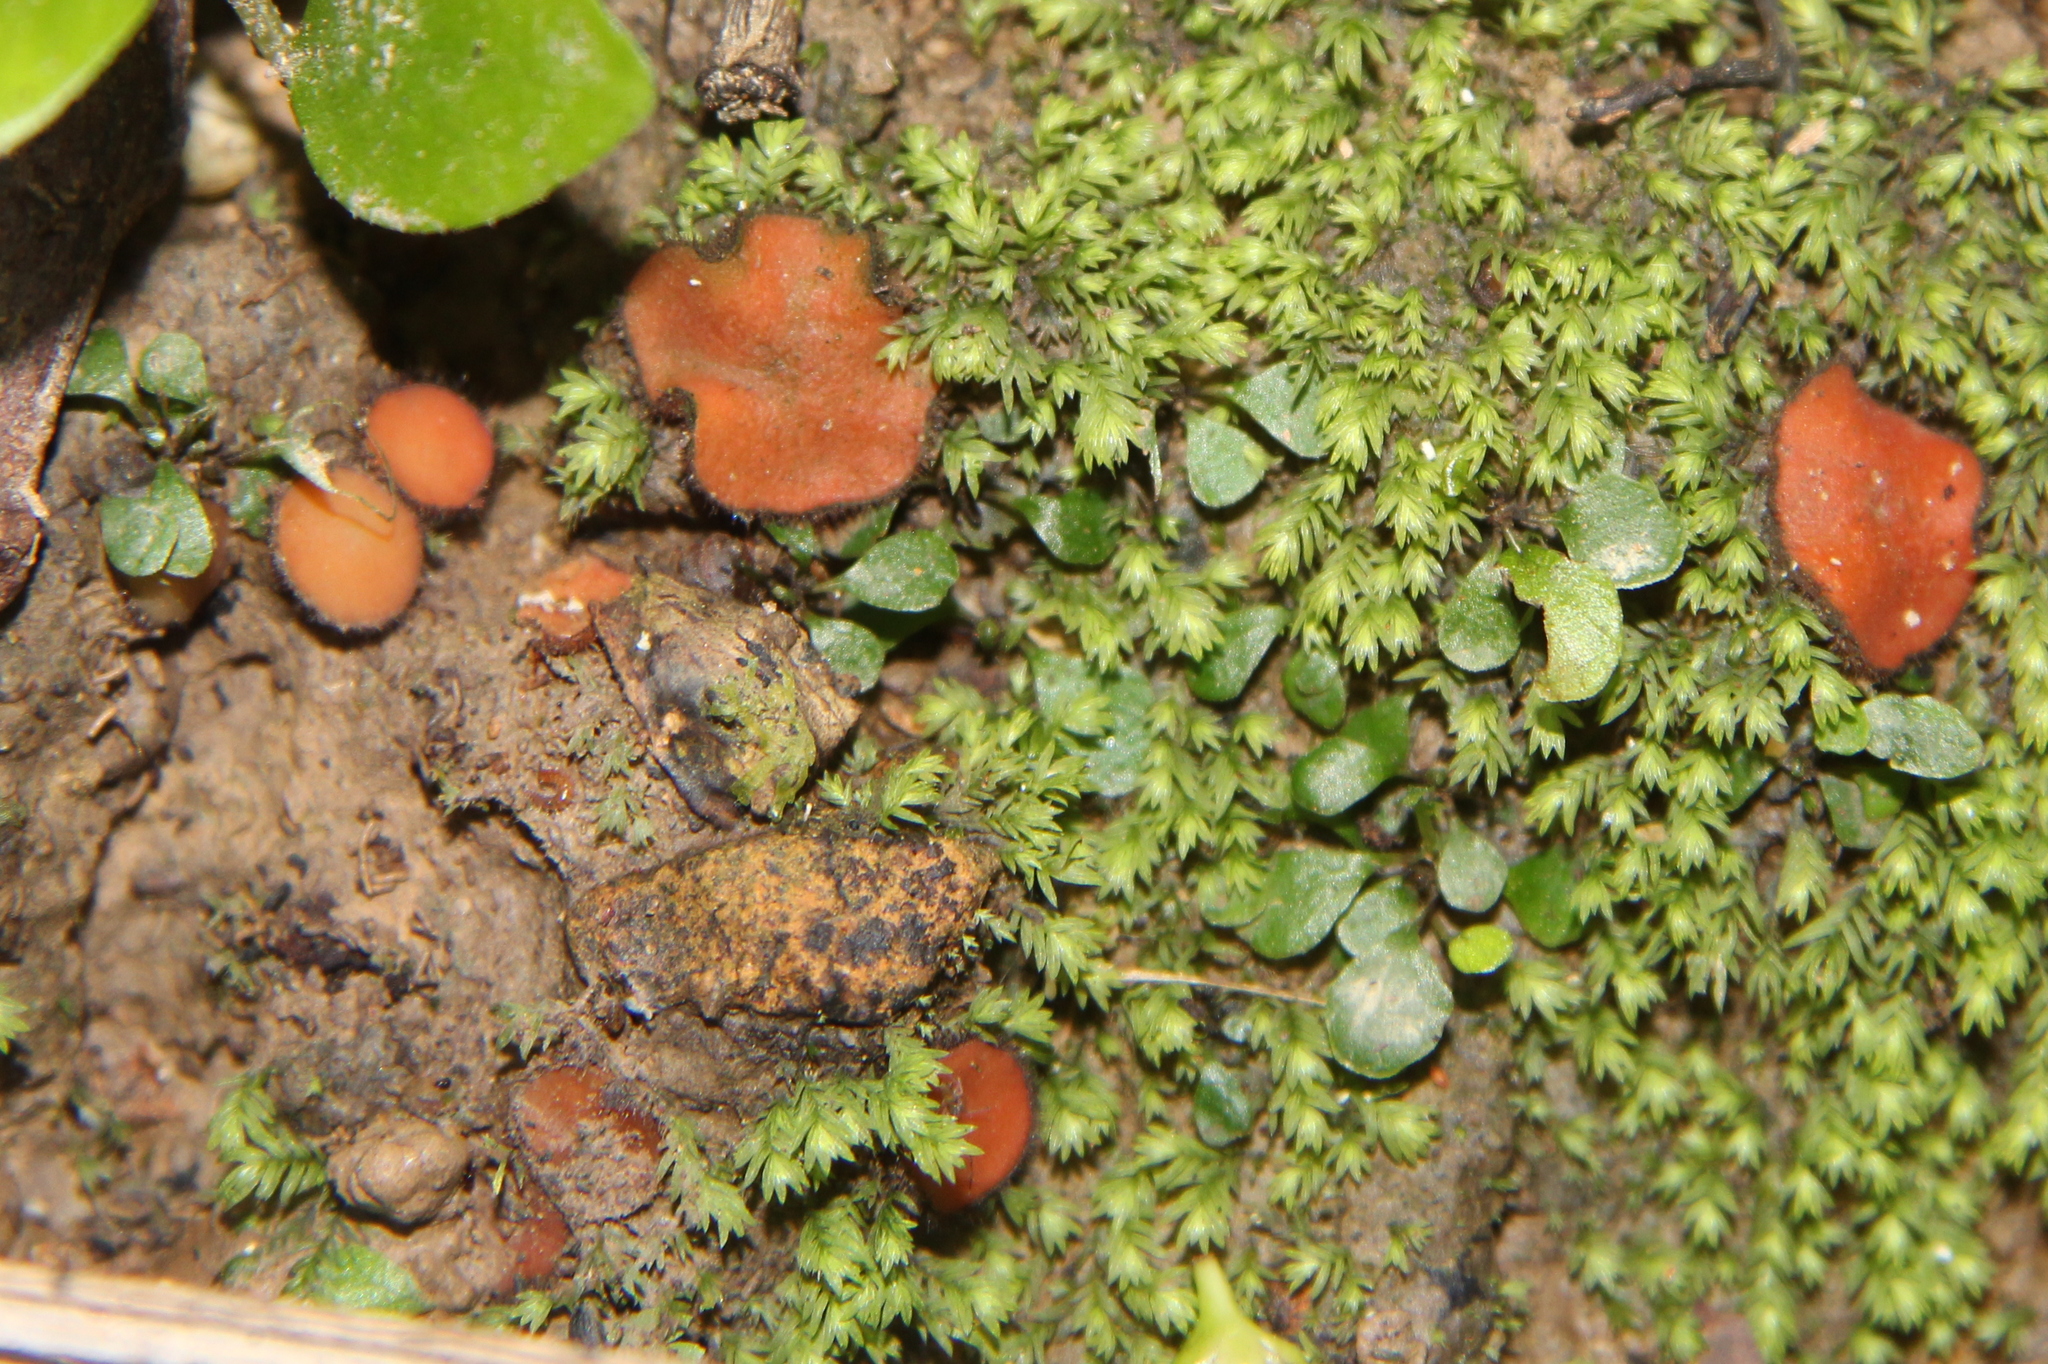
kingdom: Fungi
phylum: Ascomycota
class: Pezizomycetes
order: Pezizales
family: Pyronemataceae
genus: Scutellinia
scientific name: Scutellinia
